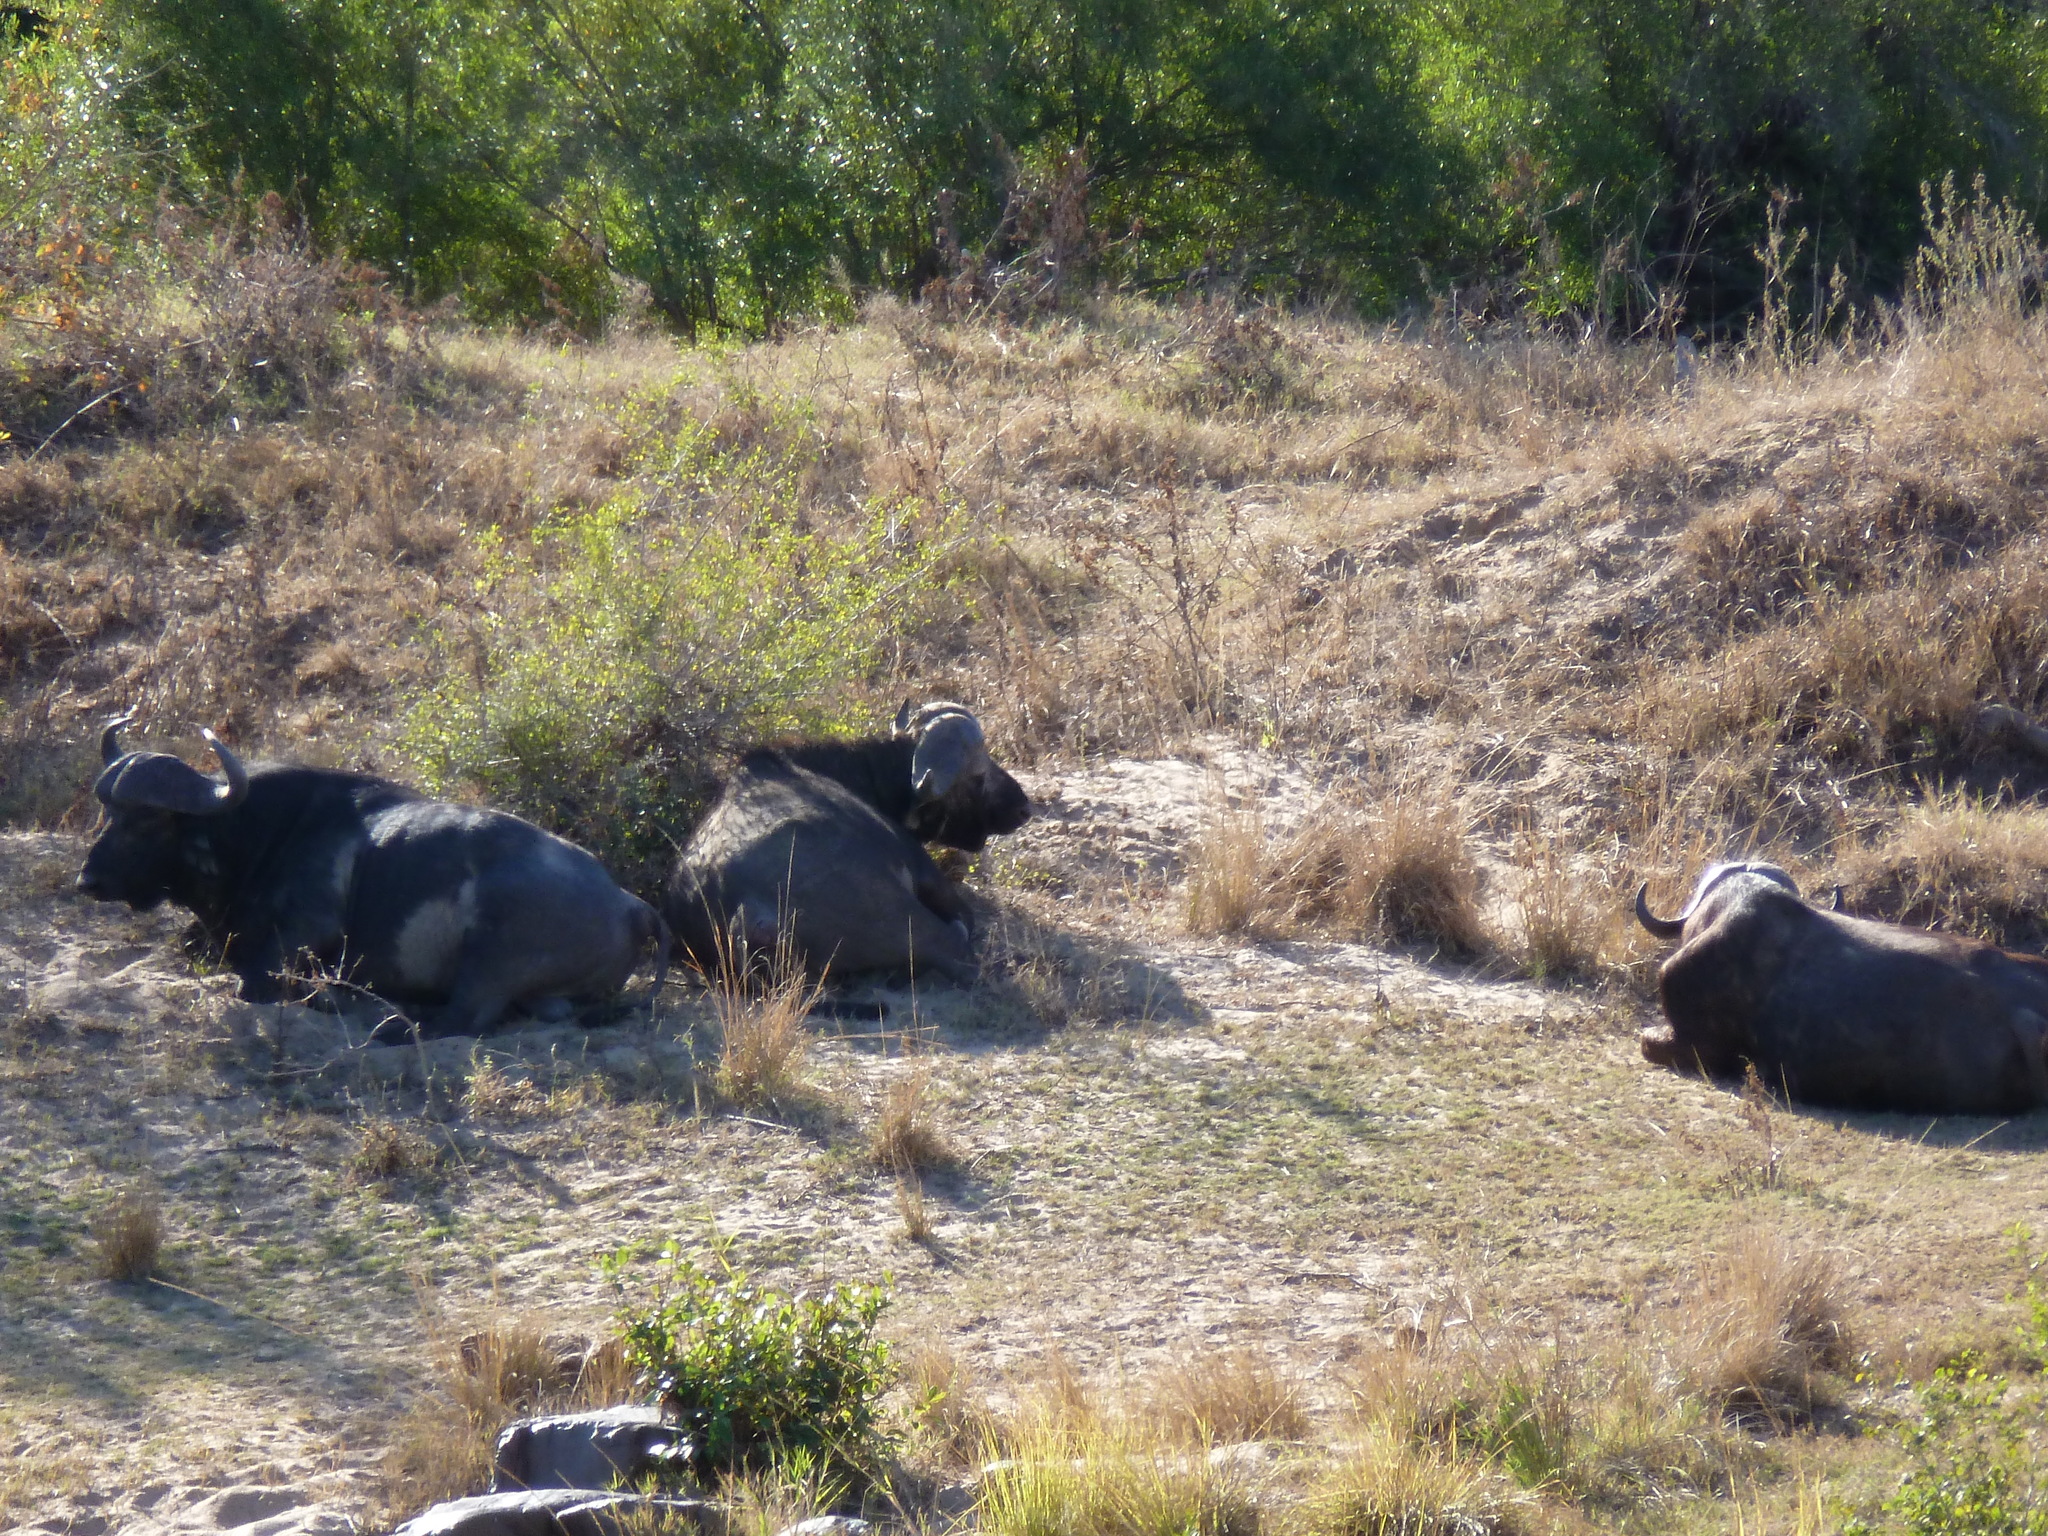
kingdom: Animalia
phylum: Chordata
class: Mammalia
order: Artiodactyla
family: Bovidae
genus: Syncerus
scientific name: Syncerus caffer
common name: African buffalo
